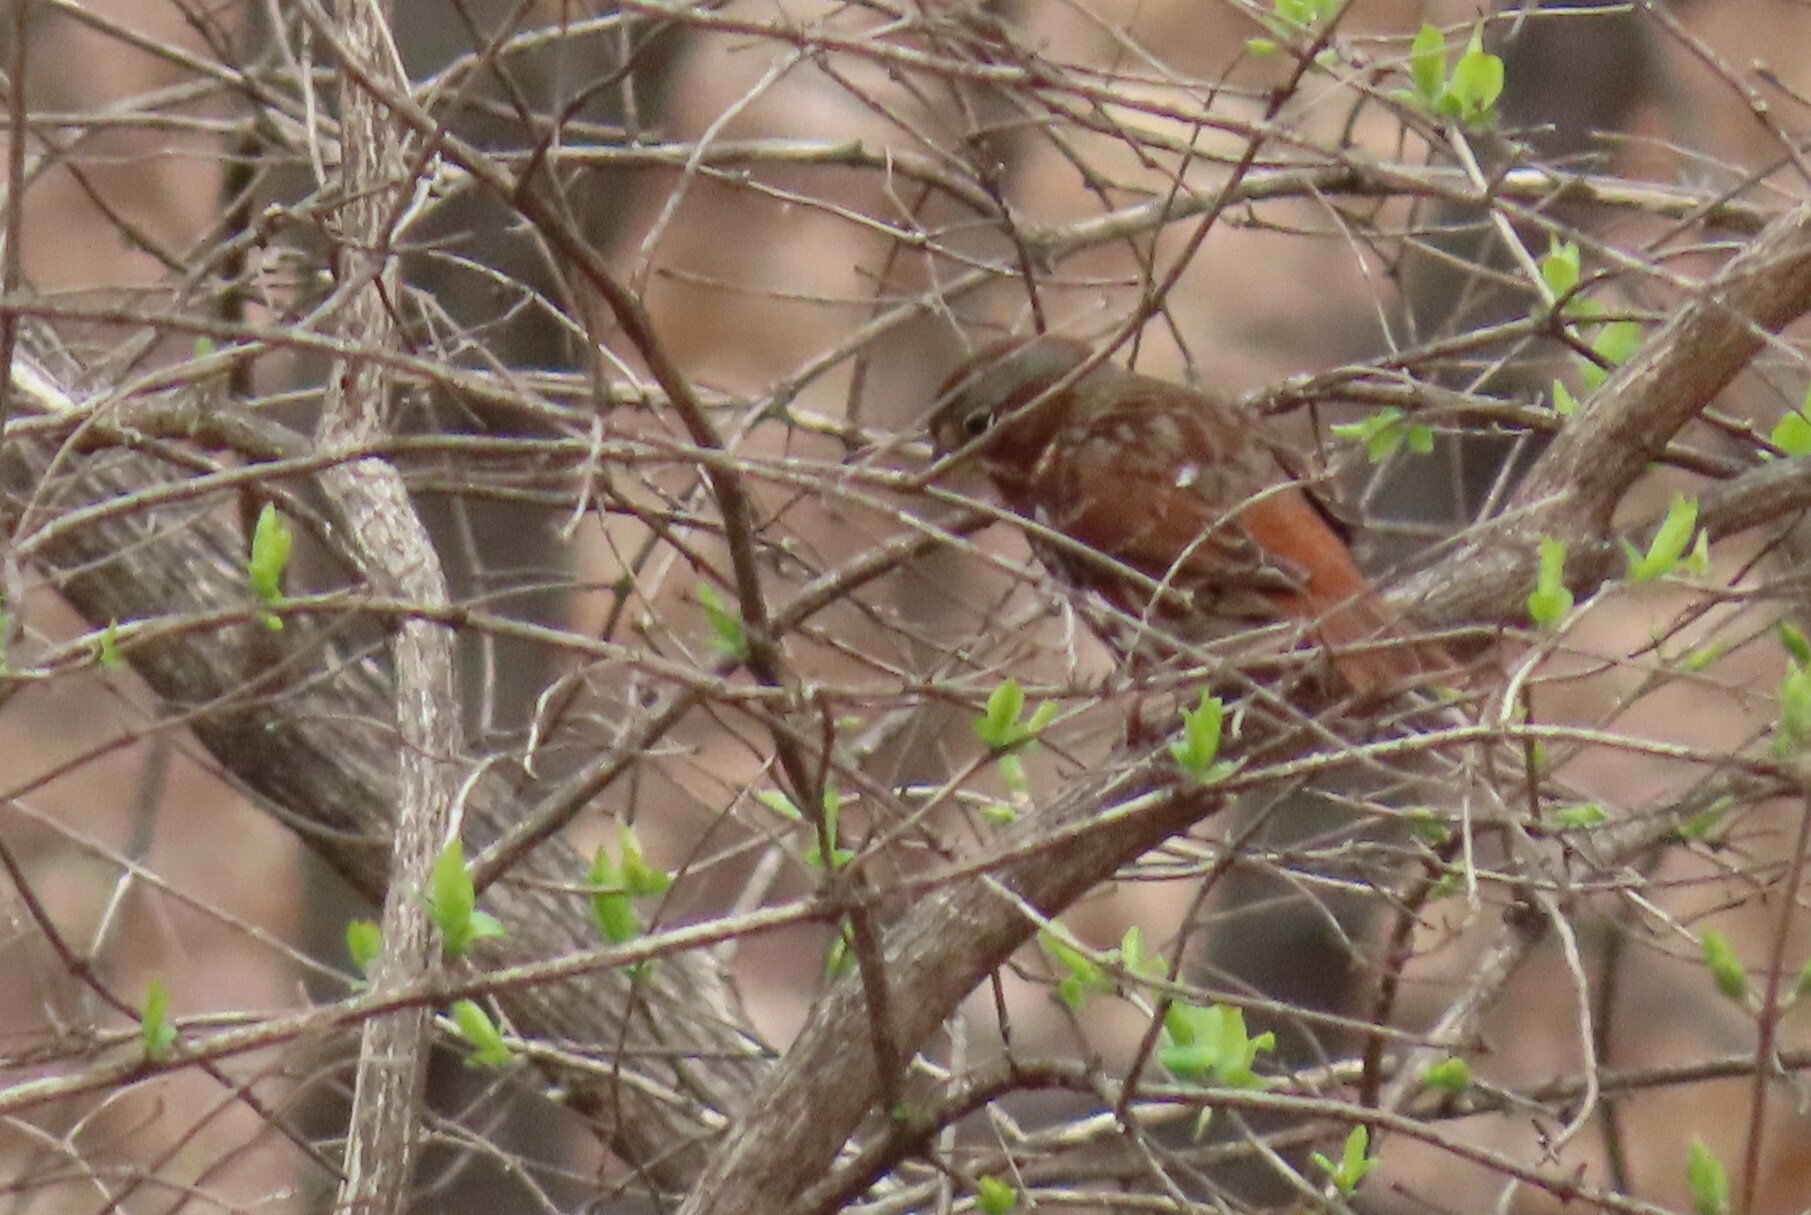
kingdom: Animalia
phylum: Chordata
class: Aves
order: Passeriformes
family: Passerellidae
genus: Passerella
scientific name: Passerella iliaca
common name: Fox sparrow
